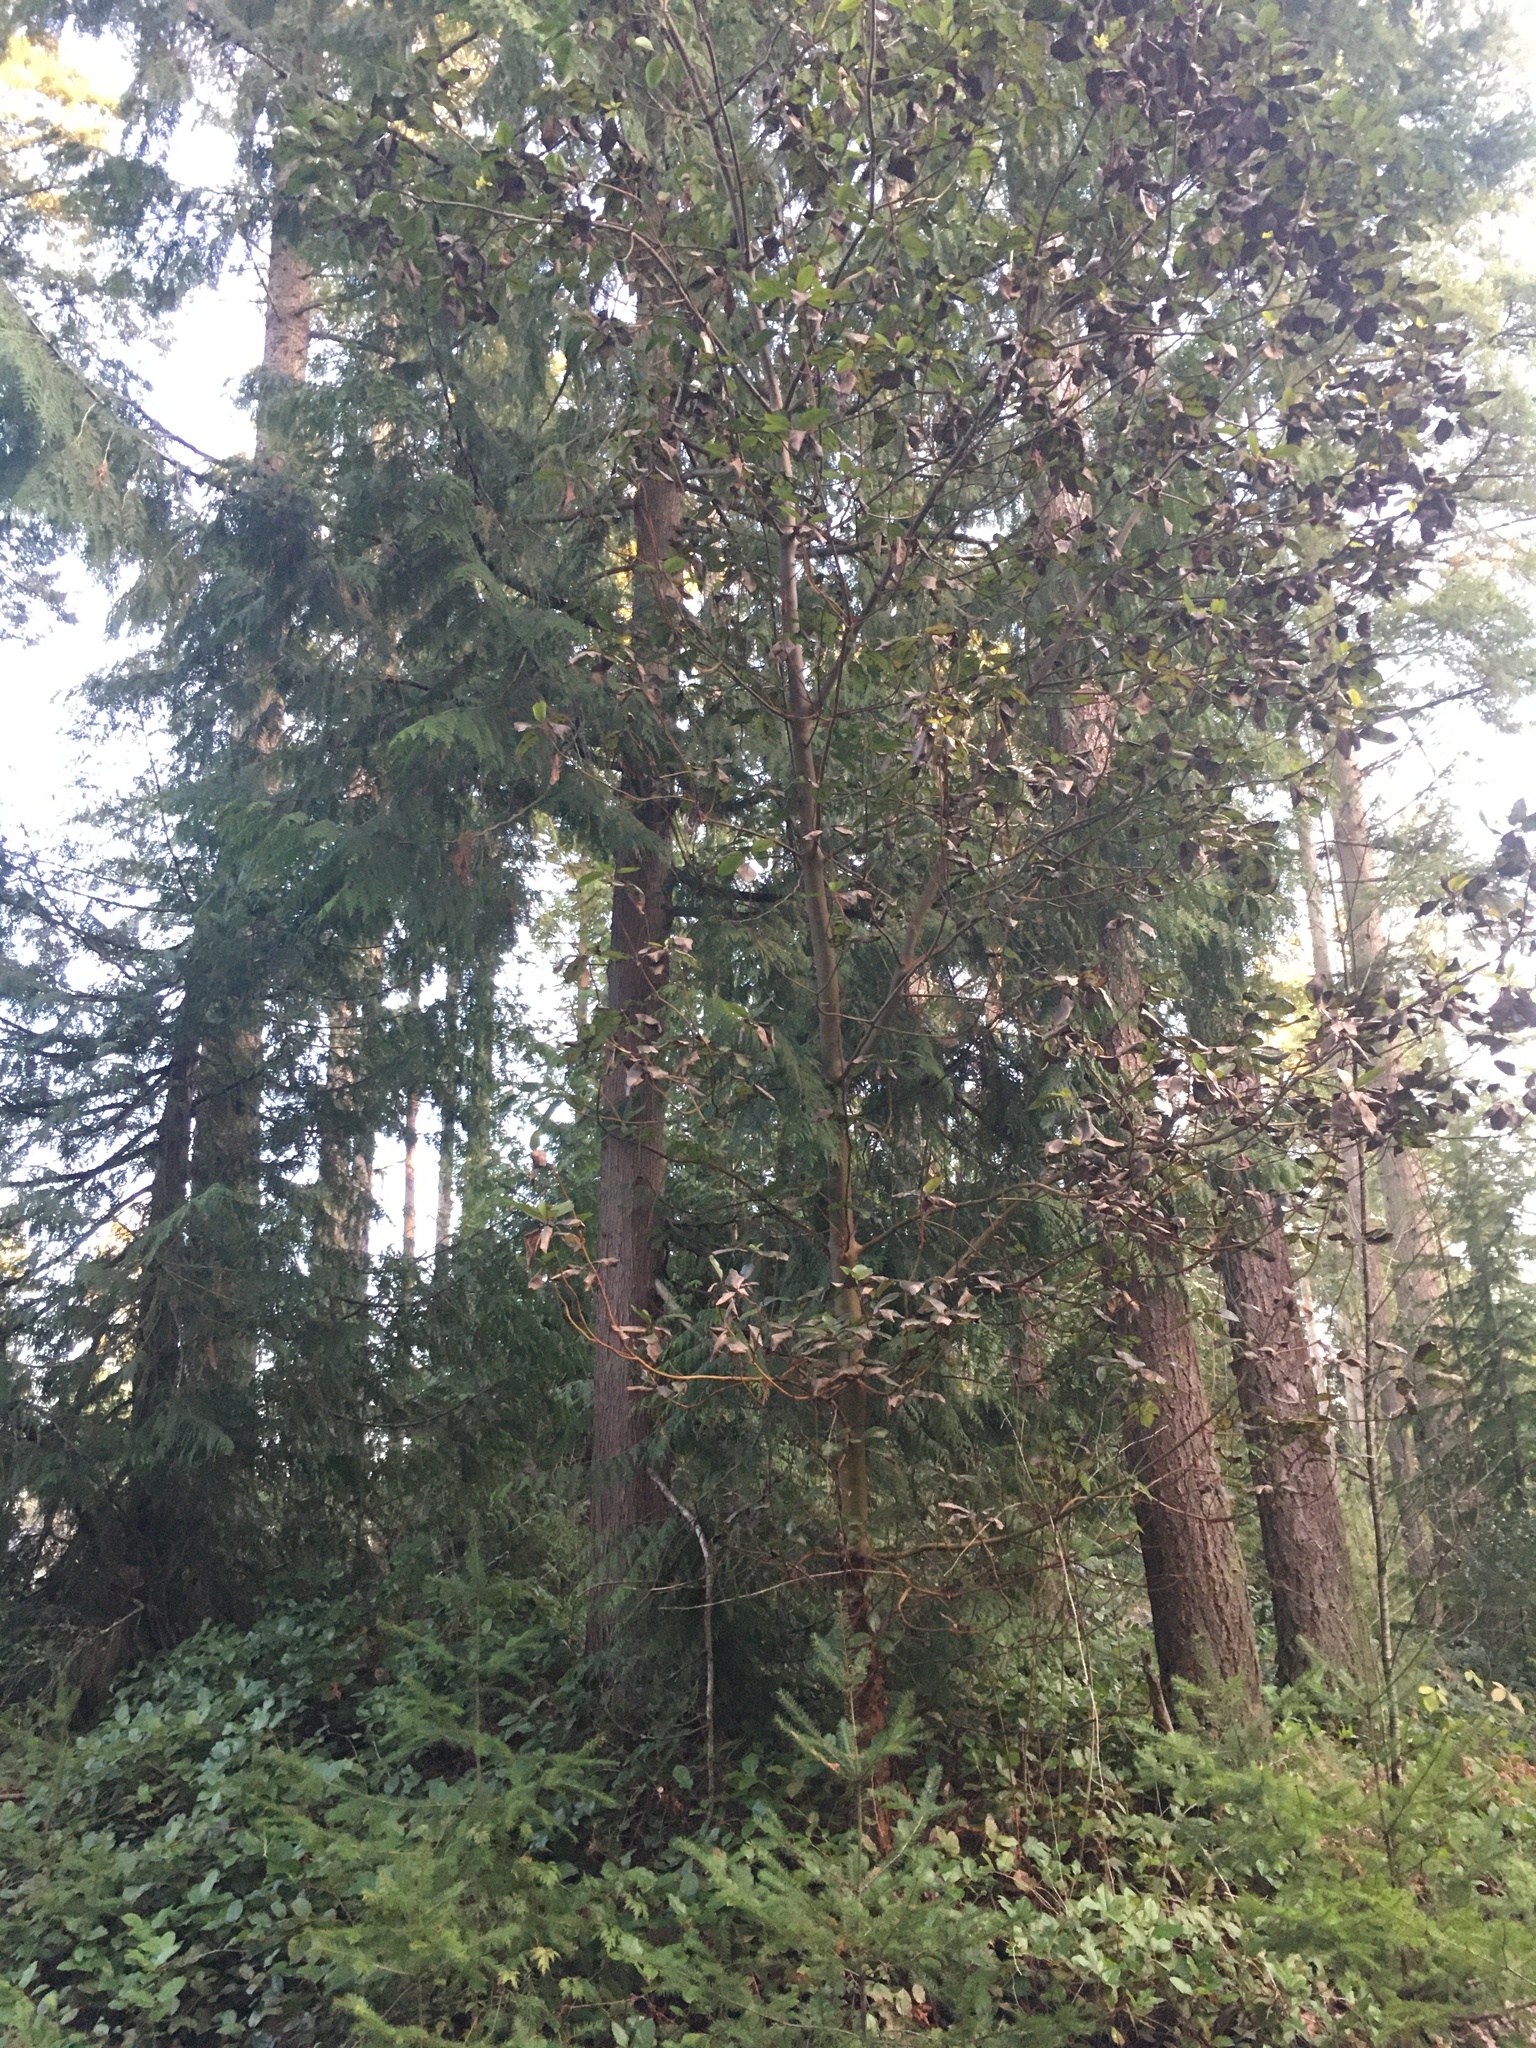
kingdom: Plantae
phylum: Tracheophyta
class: Magnoliopsida
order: Ericales
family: Ericaceae
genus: Arbutus
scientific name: Arbutus menziesii
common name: Pacific madrone
